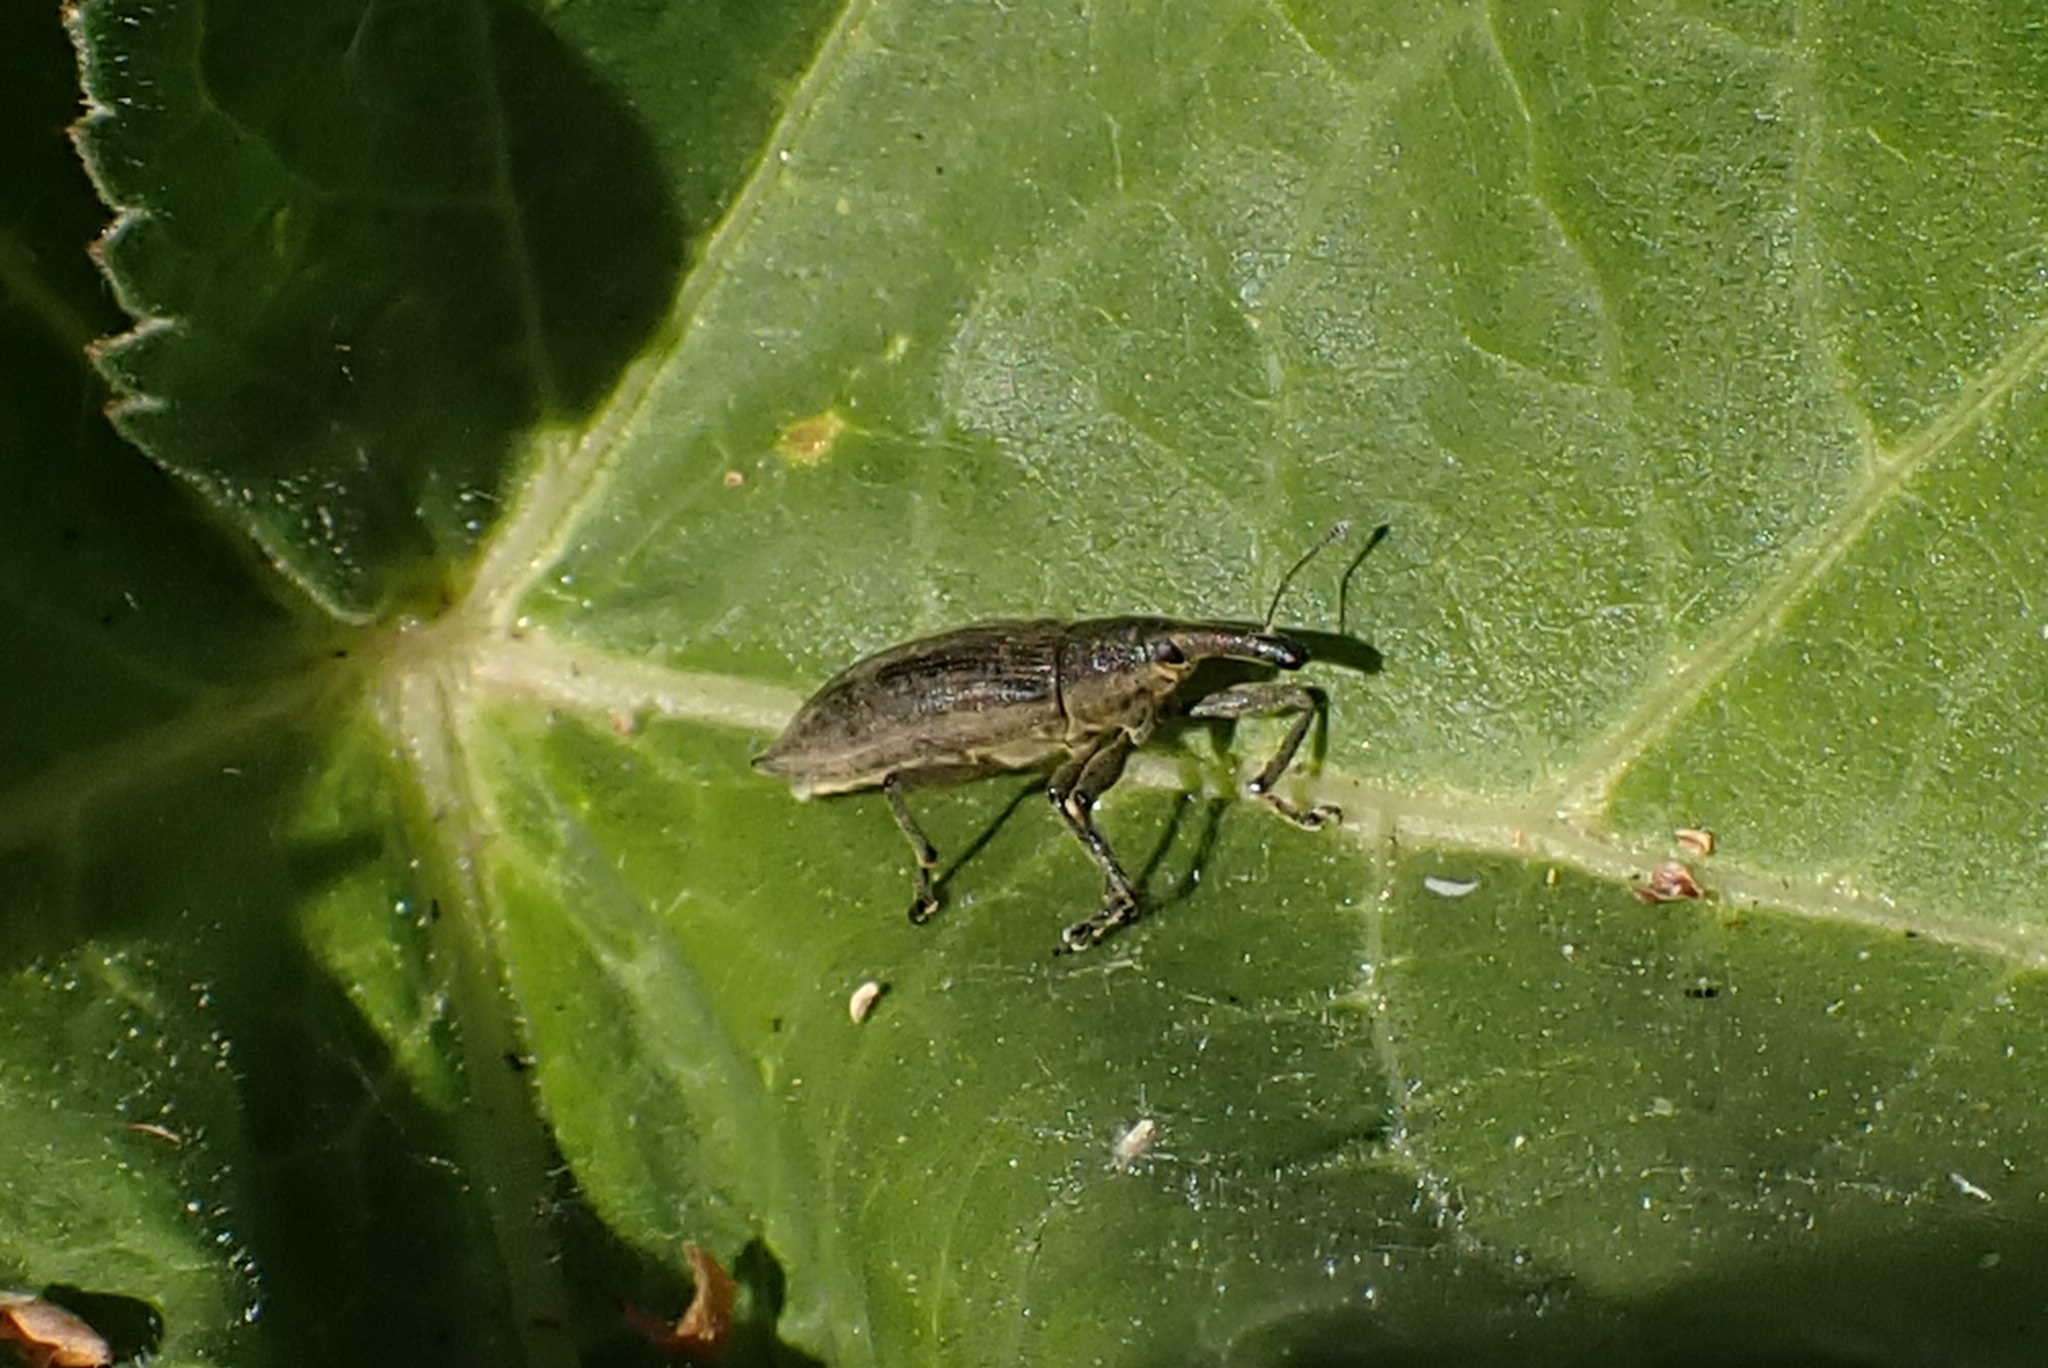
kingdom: Animalia
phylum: Arthropoda
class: Insecta
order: Coleoptera
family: Curculionidae
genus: Lixus
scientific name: Lixus iridis
